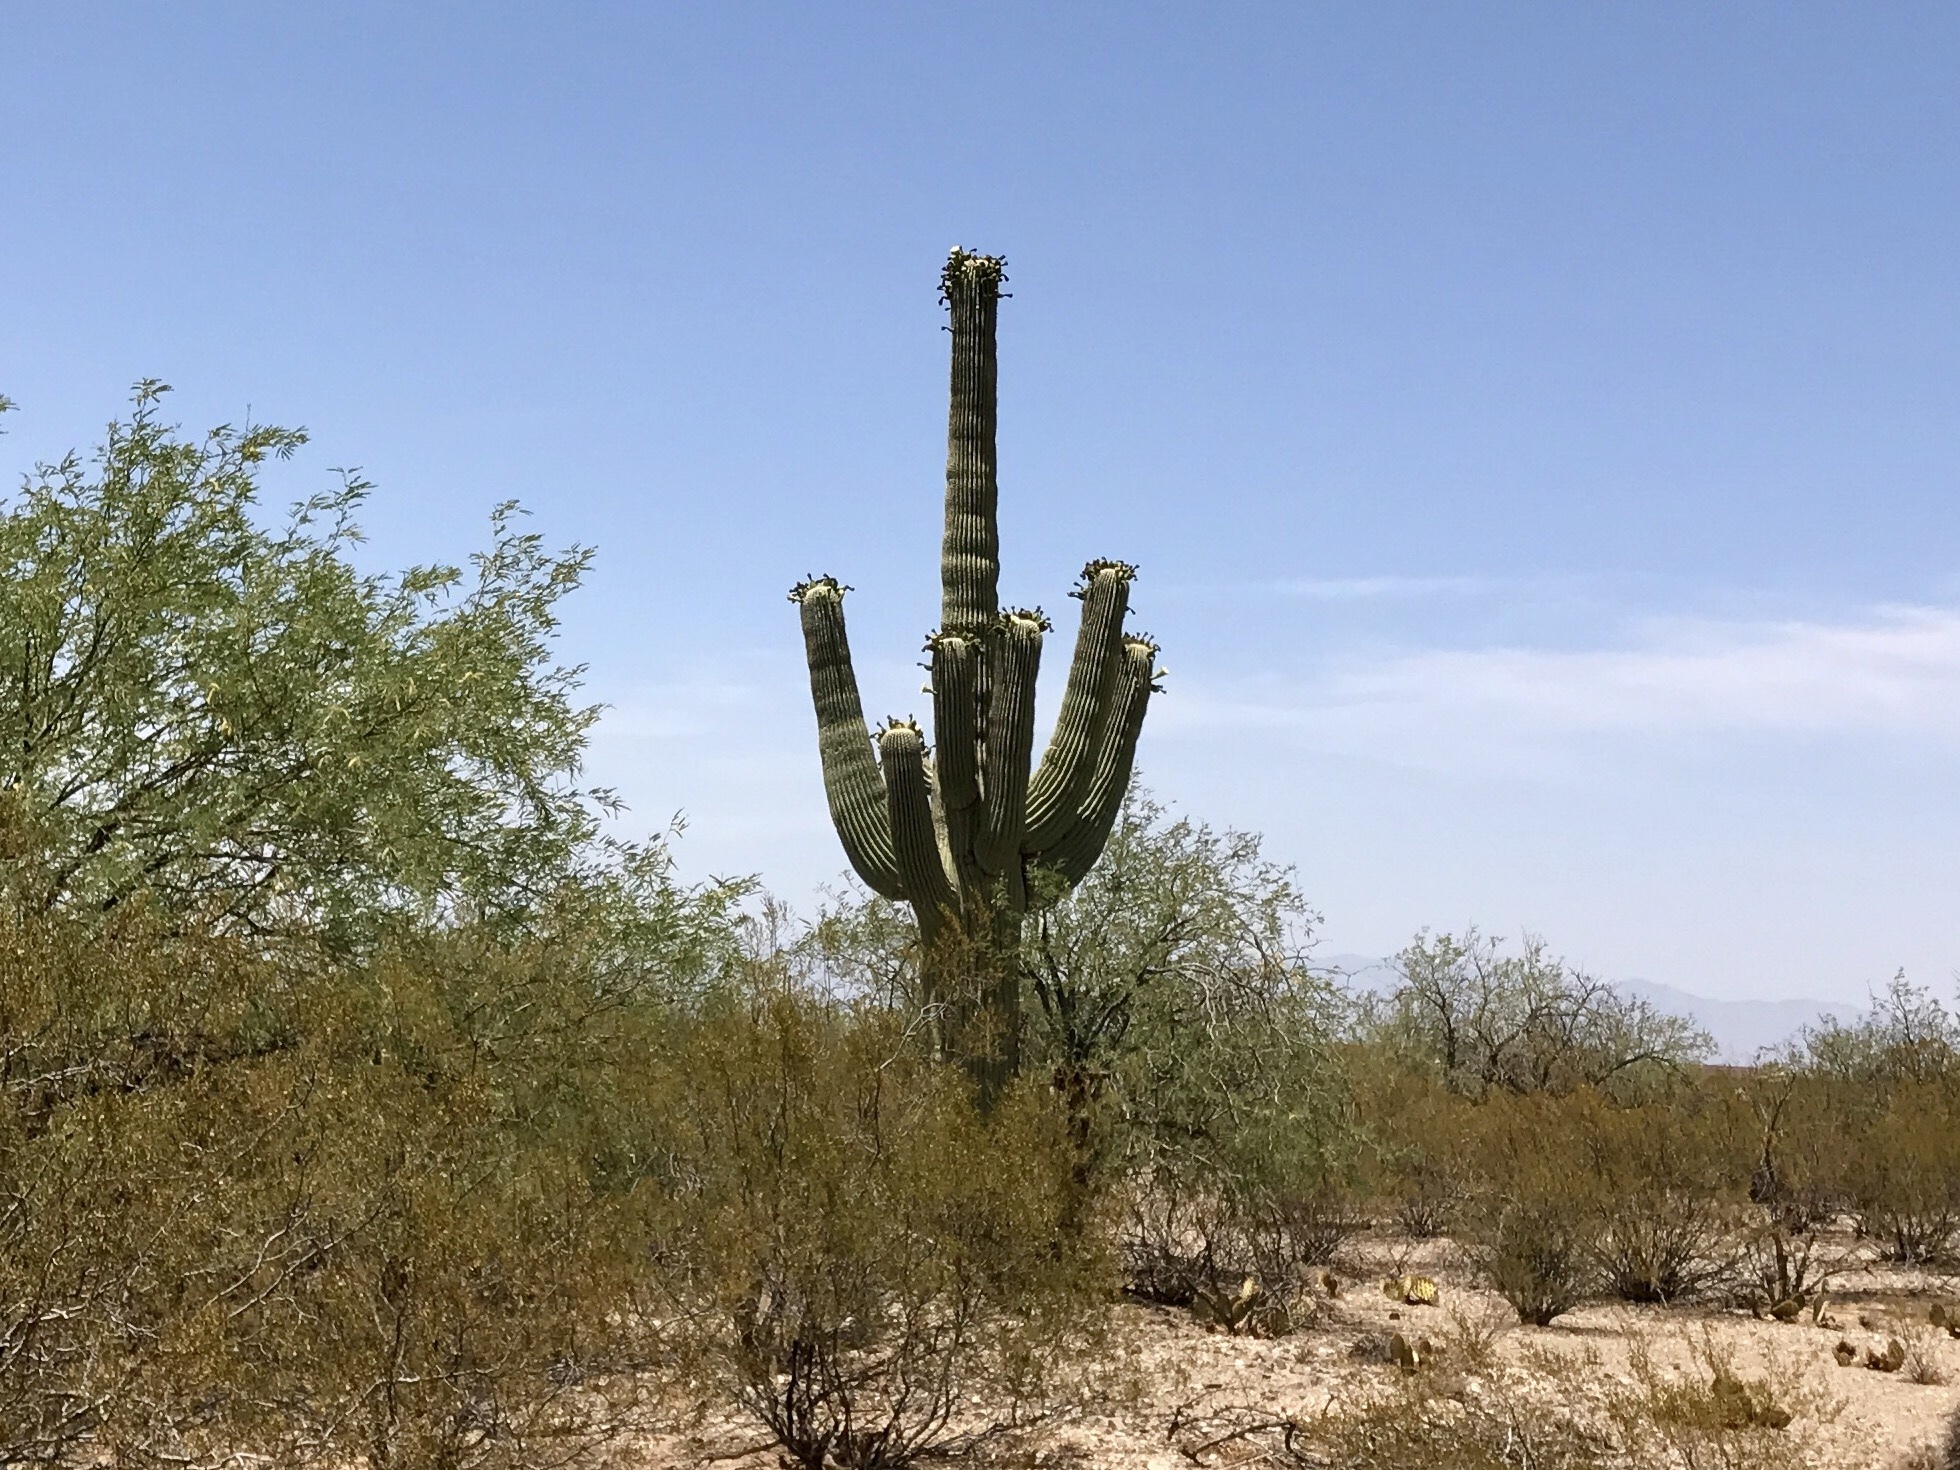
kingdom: Plantae
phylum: Tracheophyta
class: Magnoliopsida
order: Caryophyllales
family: Cactaceae
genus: Carnegiea
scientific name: Carnegiea gigantea
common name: Saguaro
